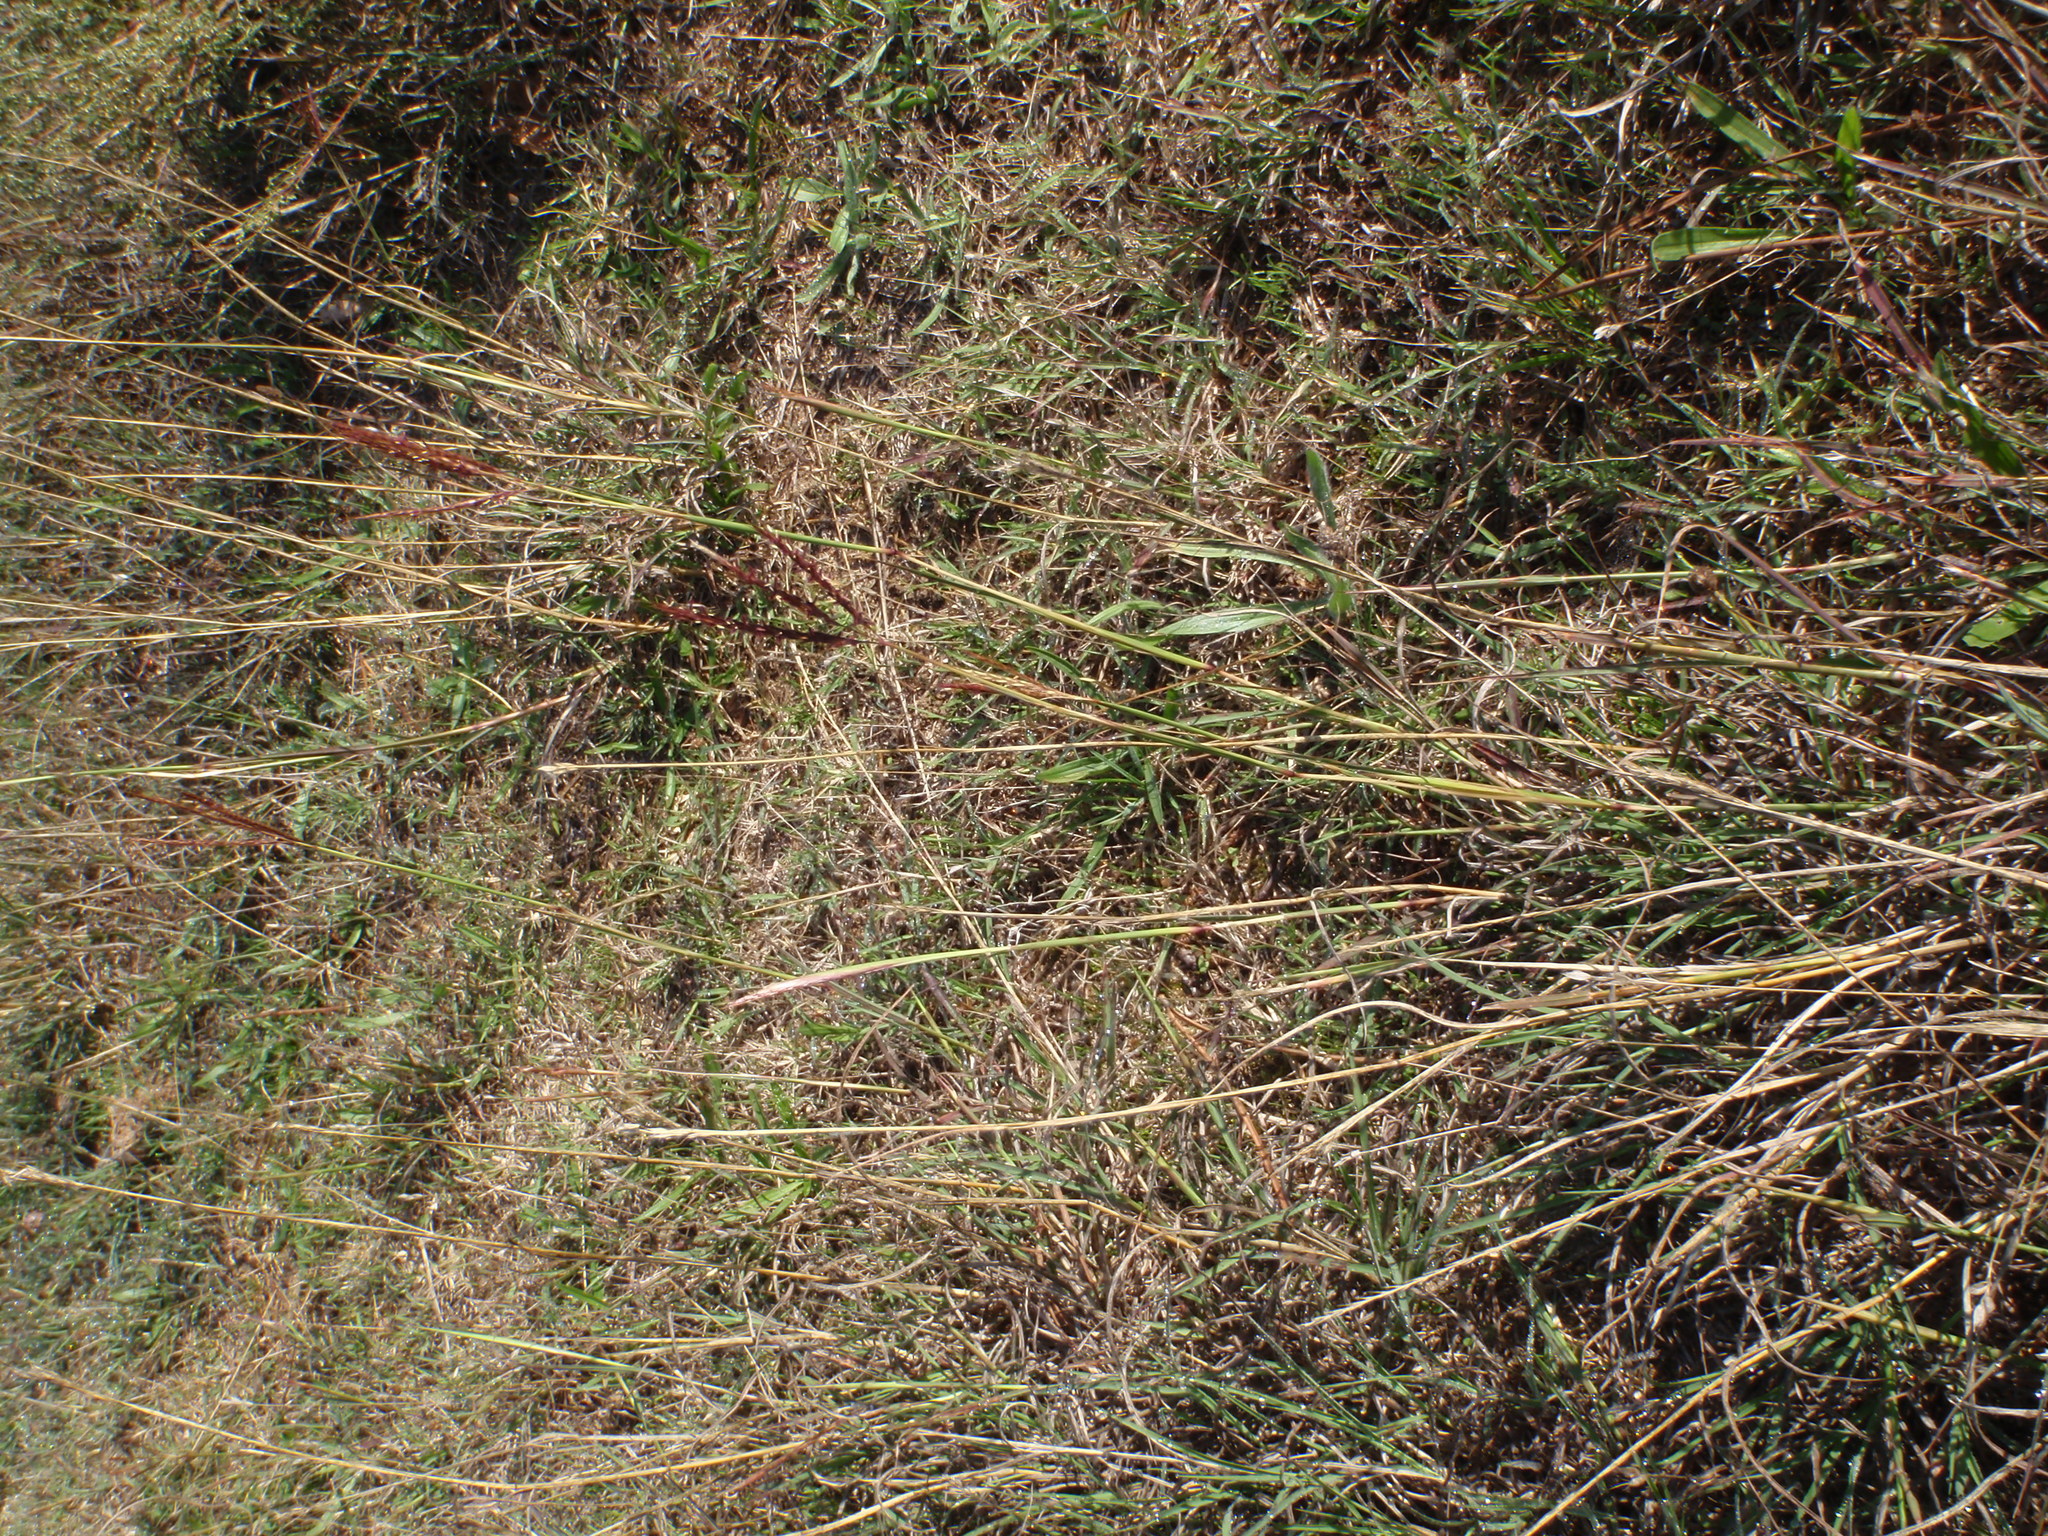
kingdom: Plantae
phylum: Tracheophyta
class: Liliopsida
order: Poales
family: Poaceae
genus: Bothriochloa
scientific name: Bothriochloa ischaemum
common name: Yellow bluestem
